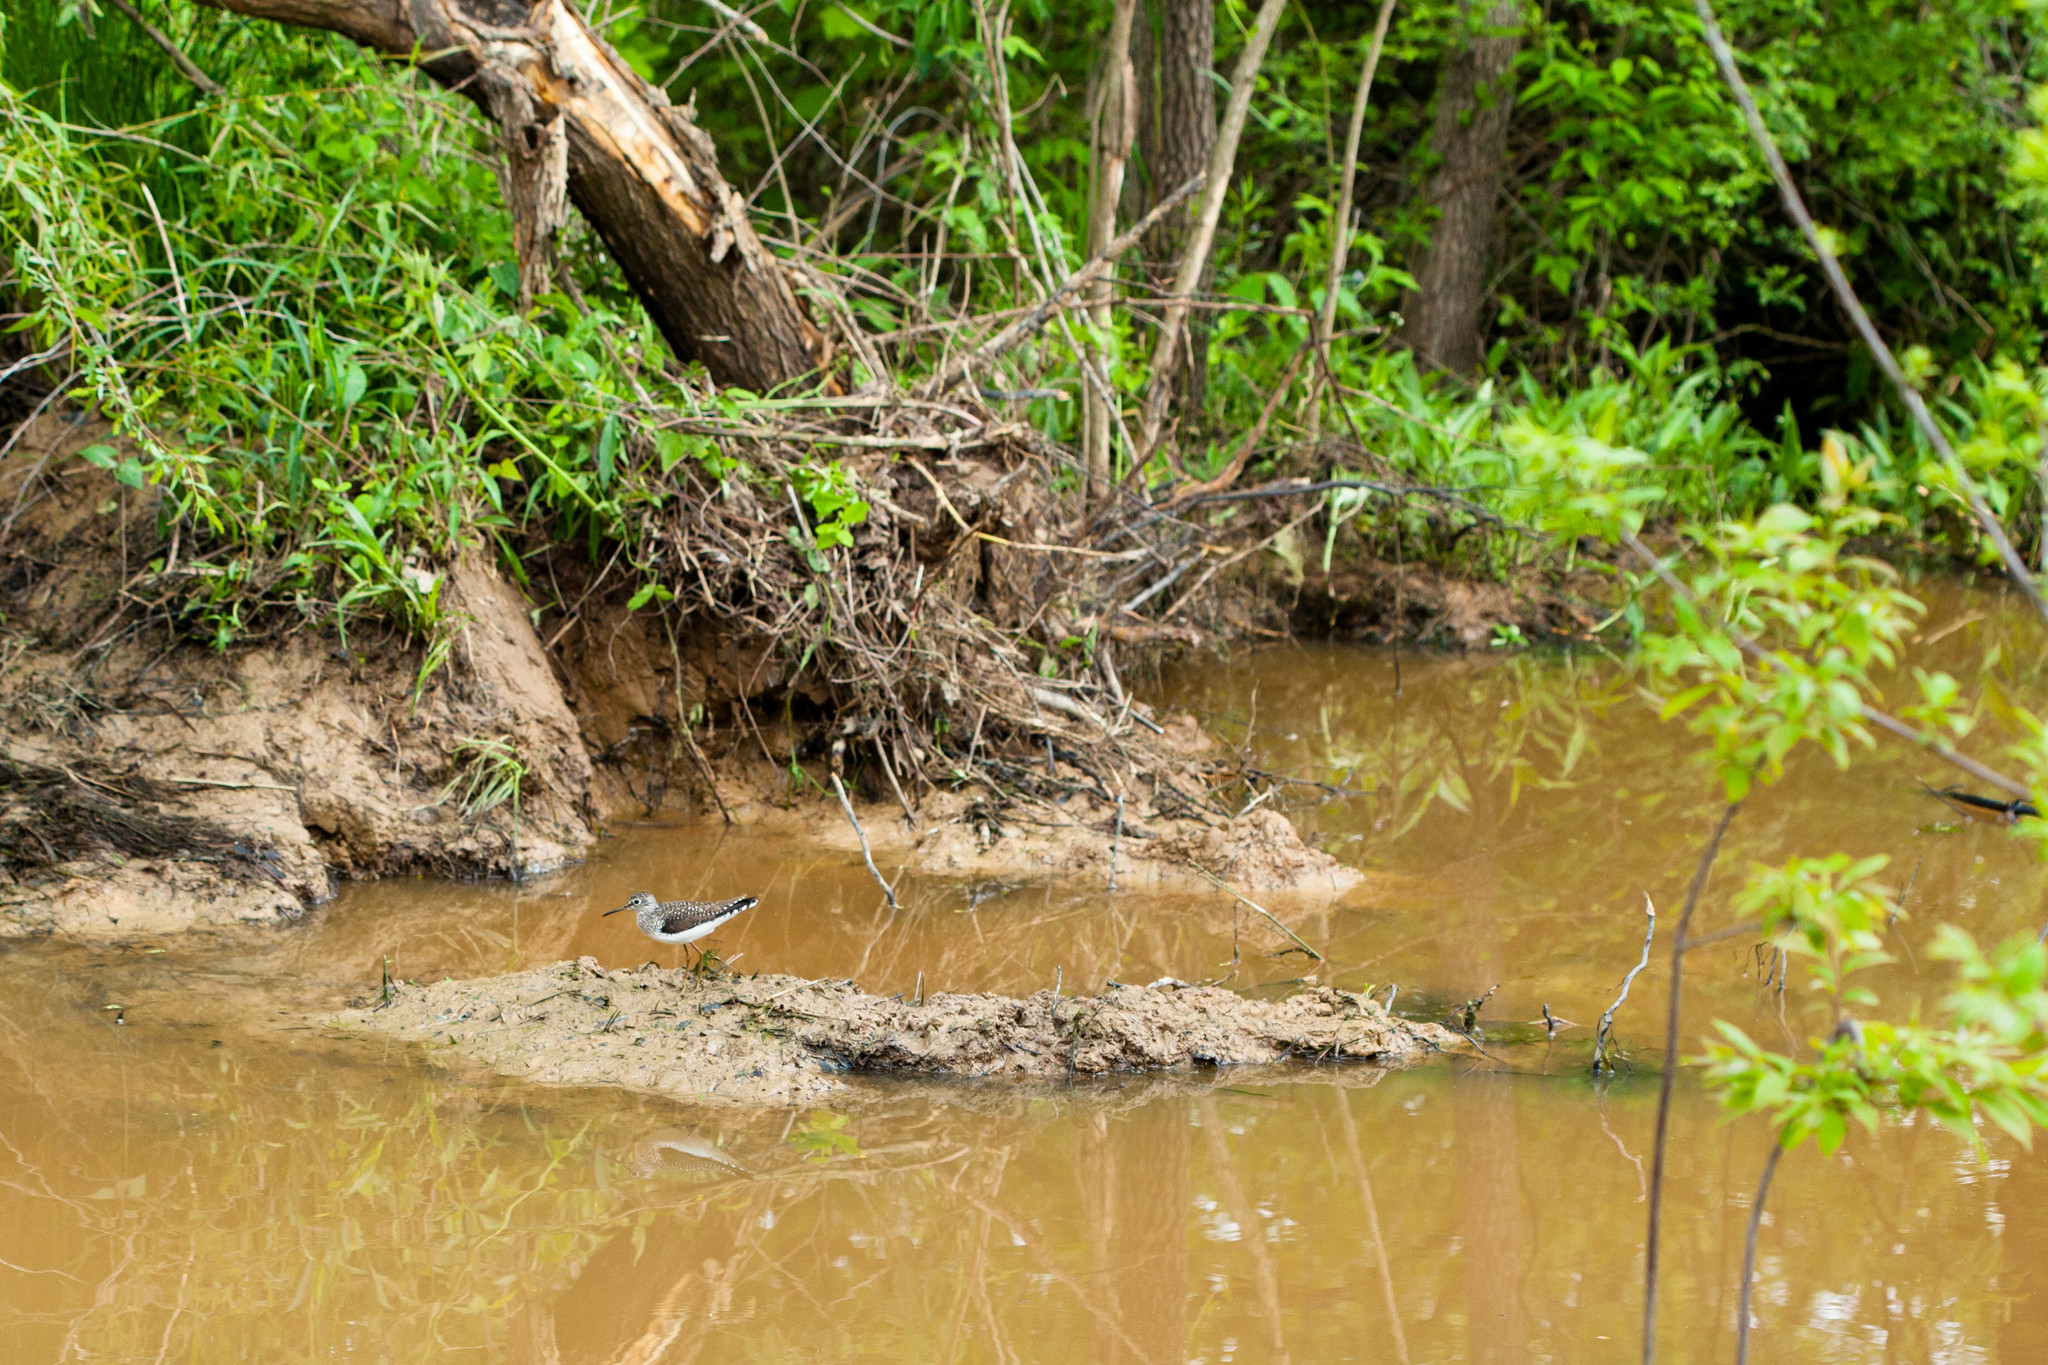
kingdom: Animalia
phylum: Chordata
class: Aves
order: Charadriiformes
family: Scolopacidae
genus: Tringa
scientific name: Tringa solitaria
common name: Solitary sandpiper
